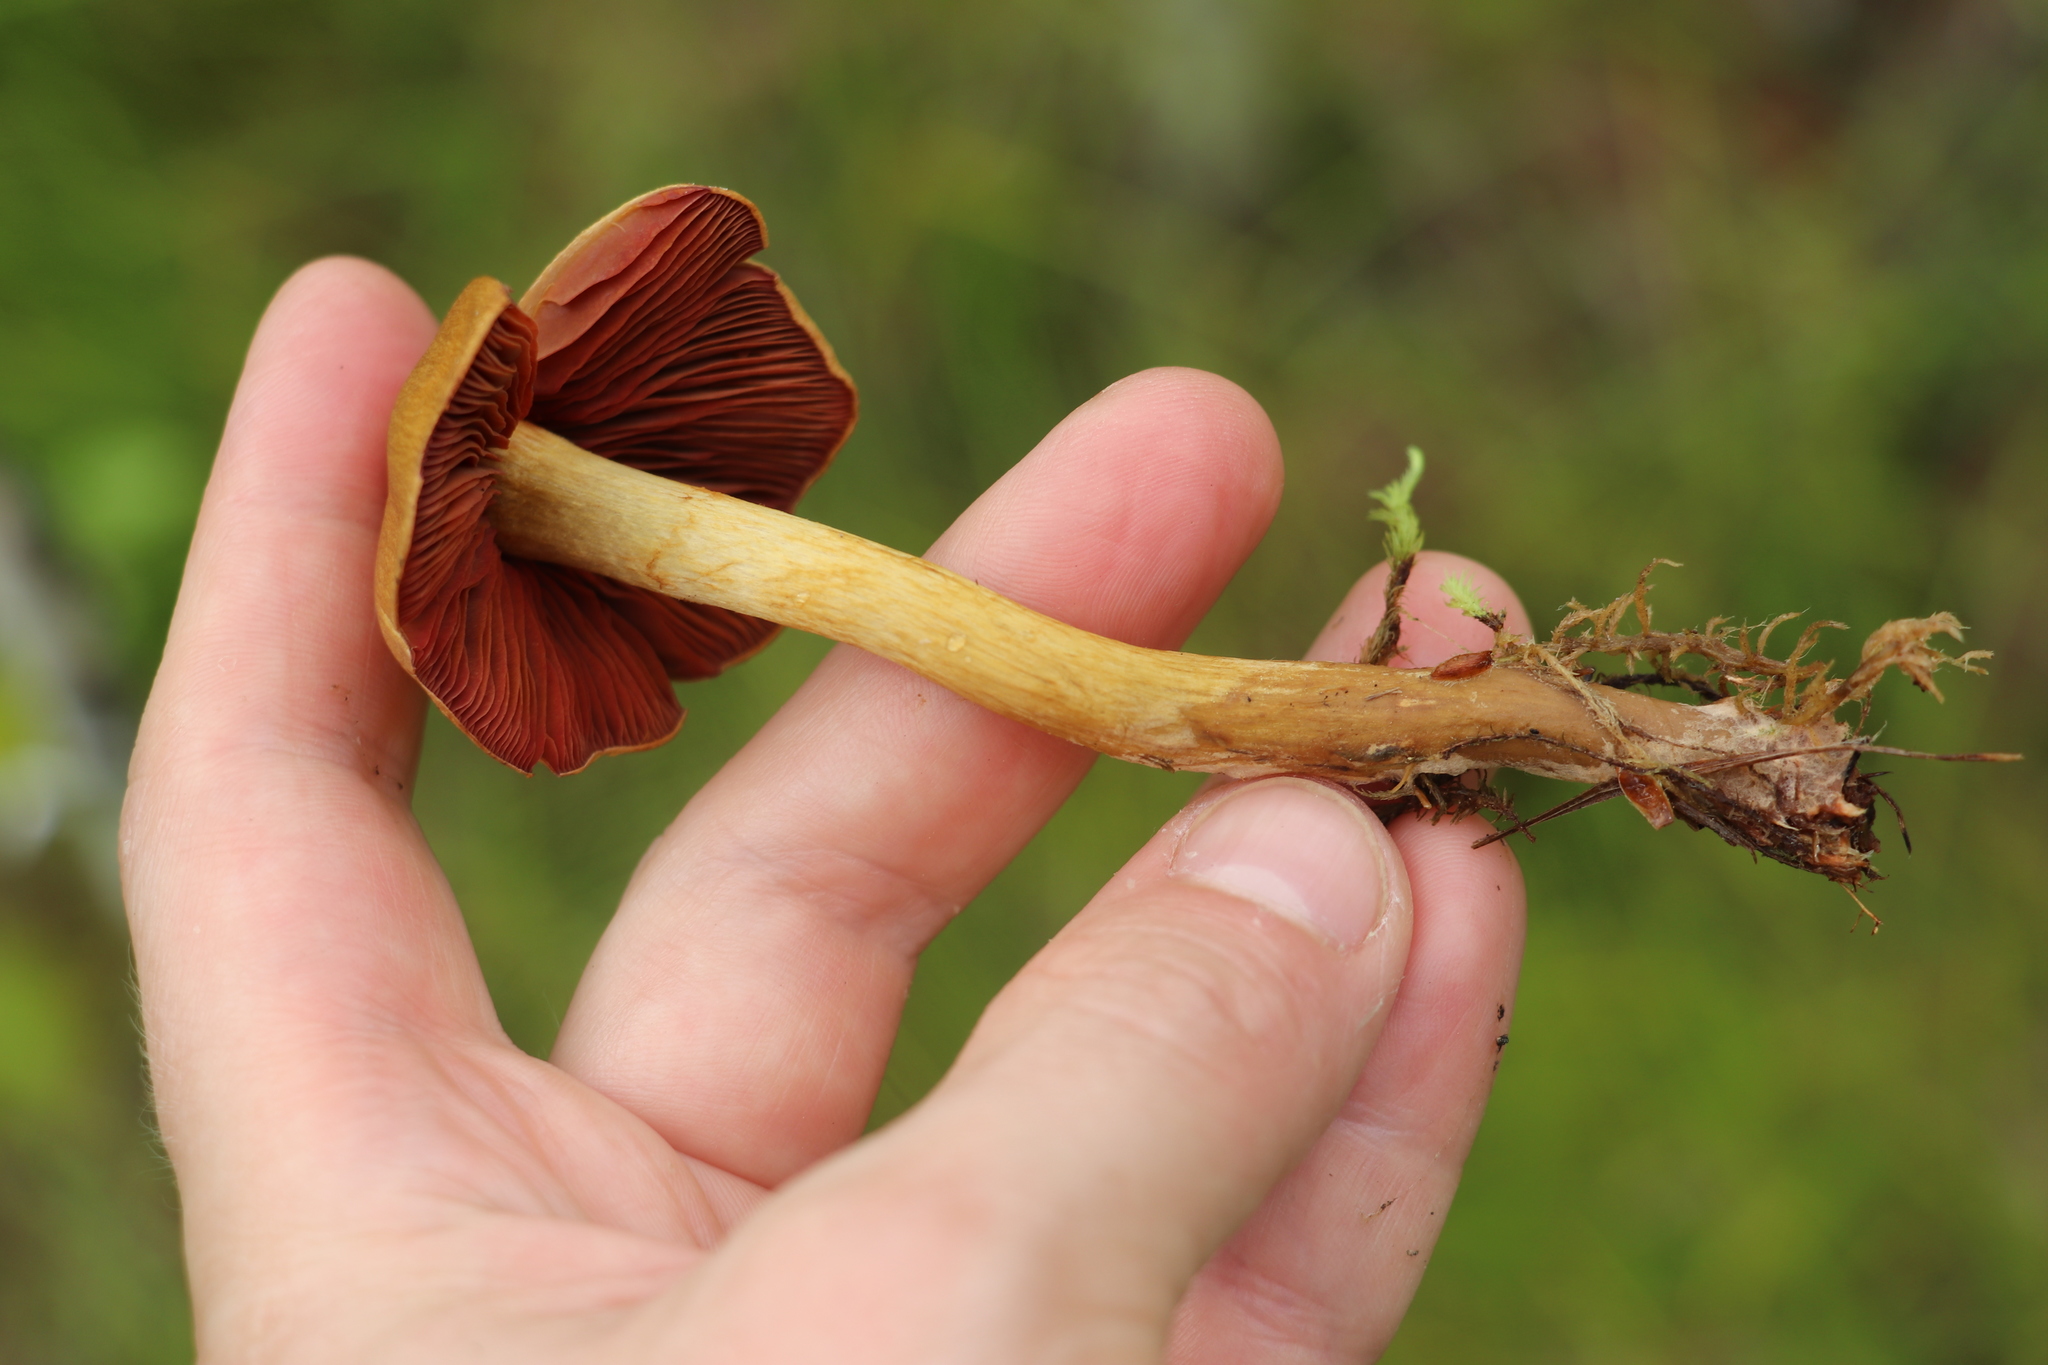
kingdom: Fungi
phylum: Basidiomycota
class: Agaricomycetes
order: Agaricales
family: Cortinariaceae
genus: Cortinarius
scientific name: Cortinarius semisanguineus
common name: Surprise webcap
